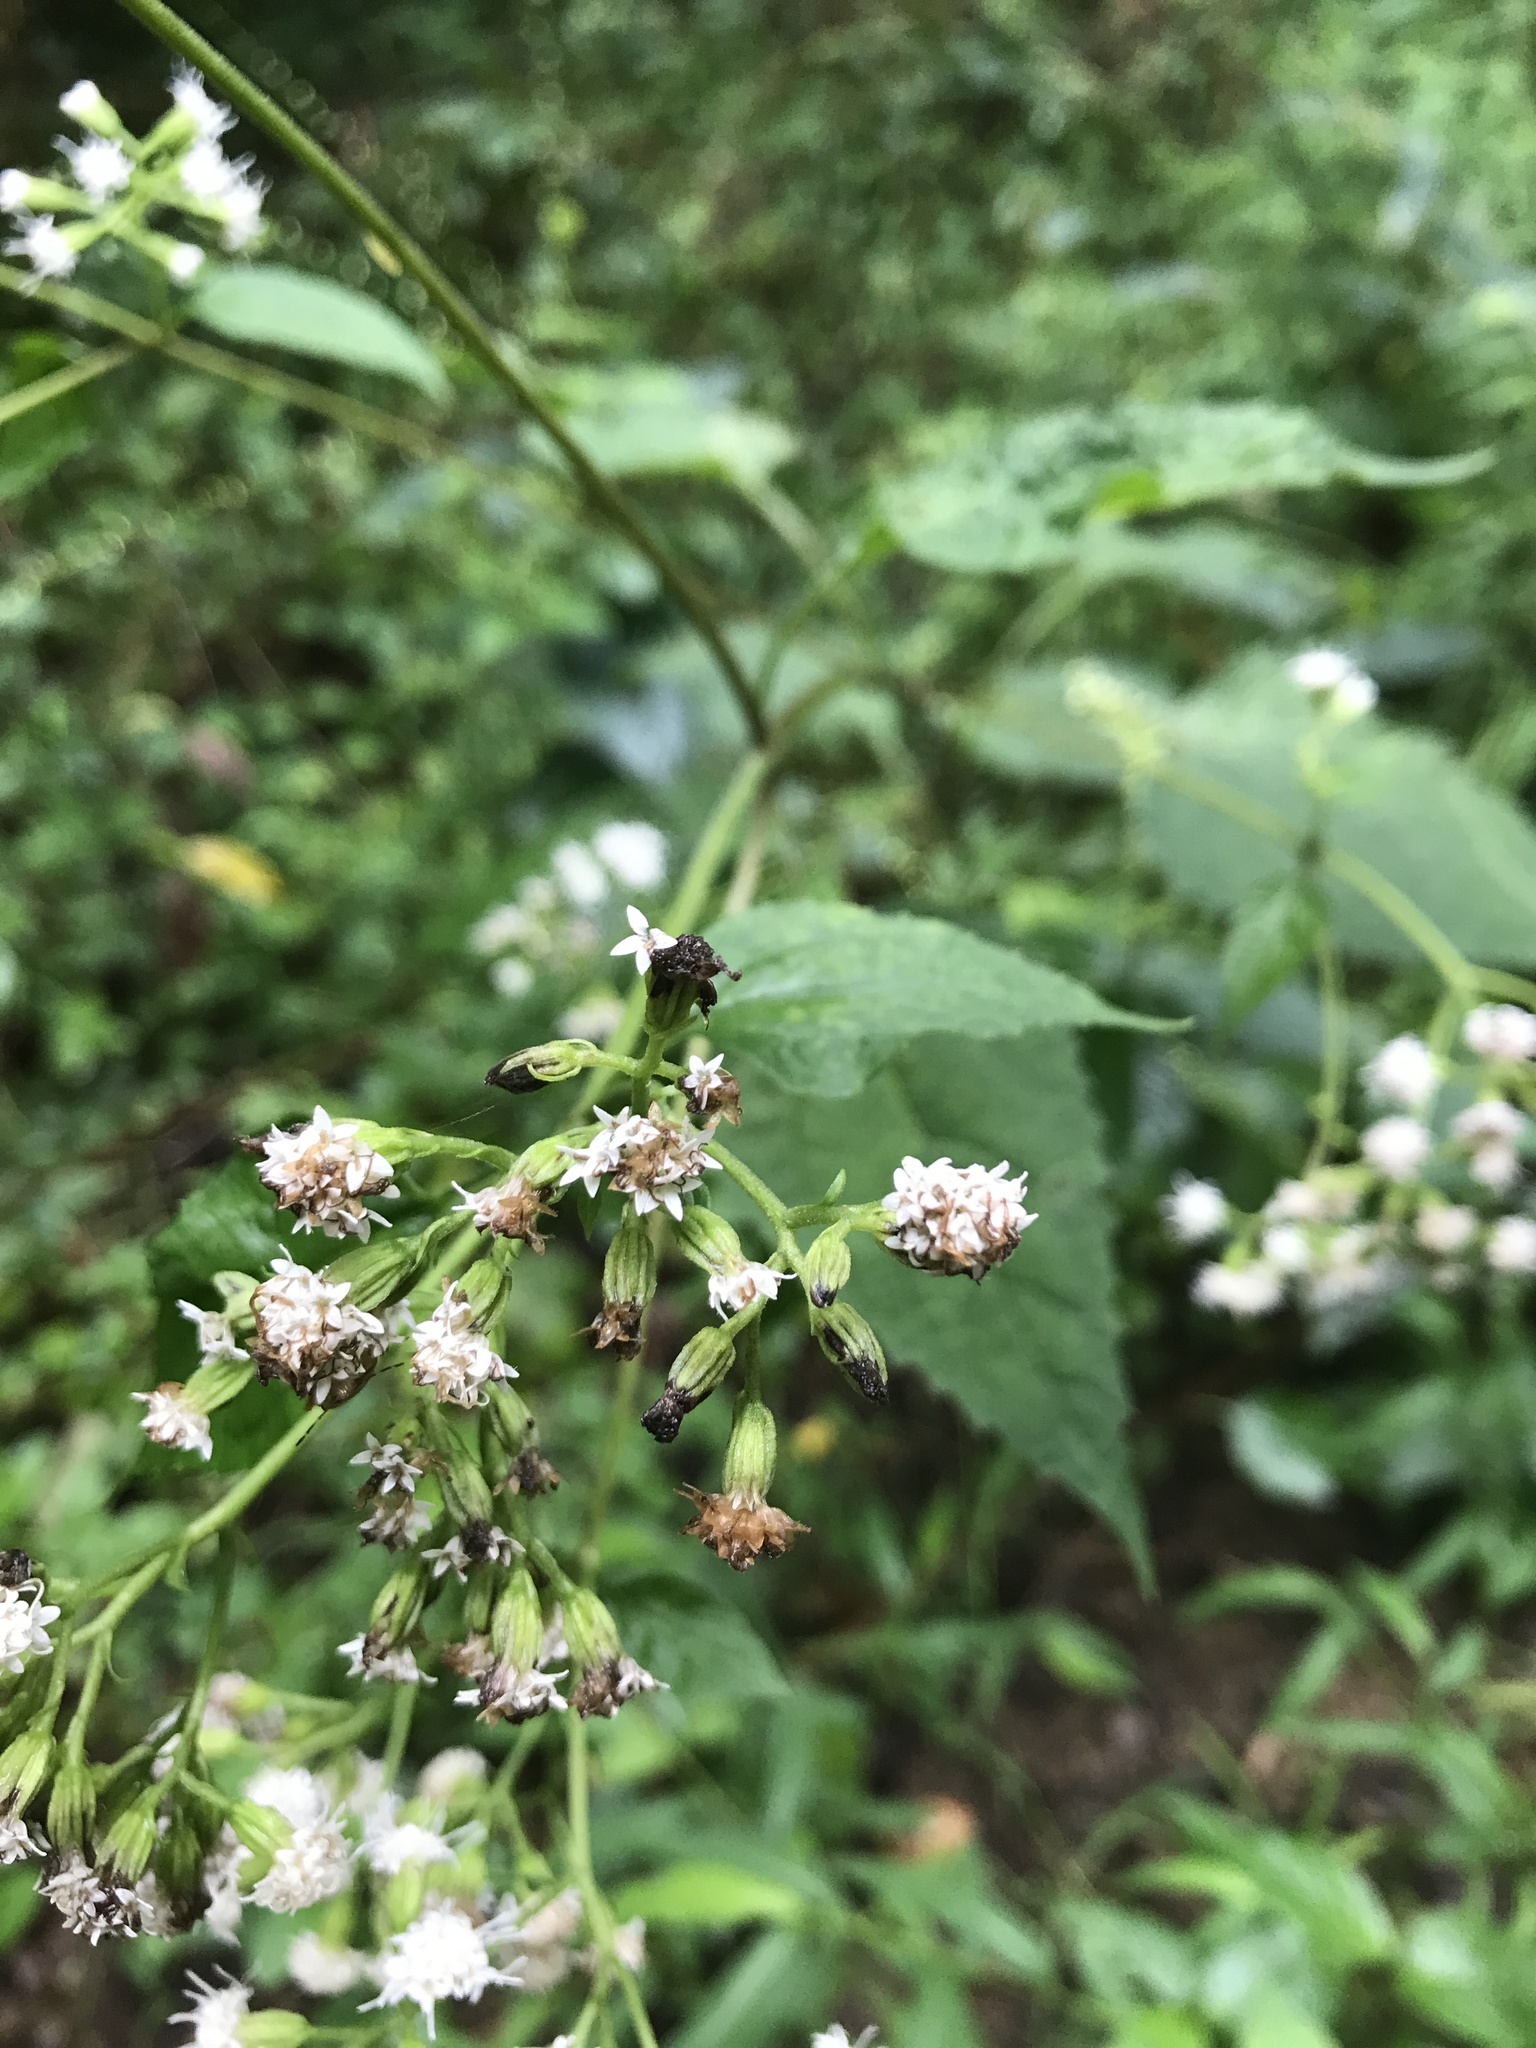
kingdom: Plantae
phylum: Tracheophyta
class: Magnoliopsida
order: Asterales
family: Asteraceae
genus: Ageratina
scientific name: Ageratina altissima
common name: White snakeroot
